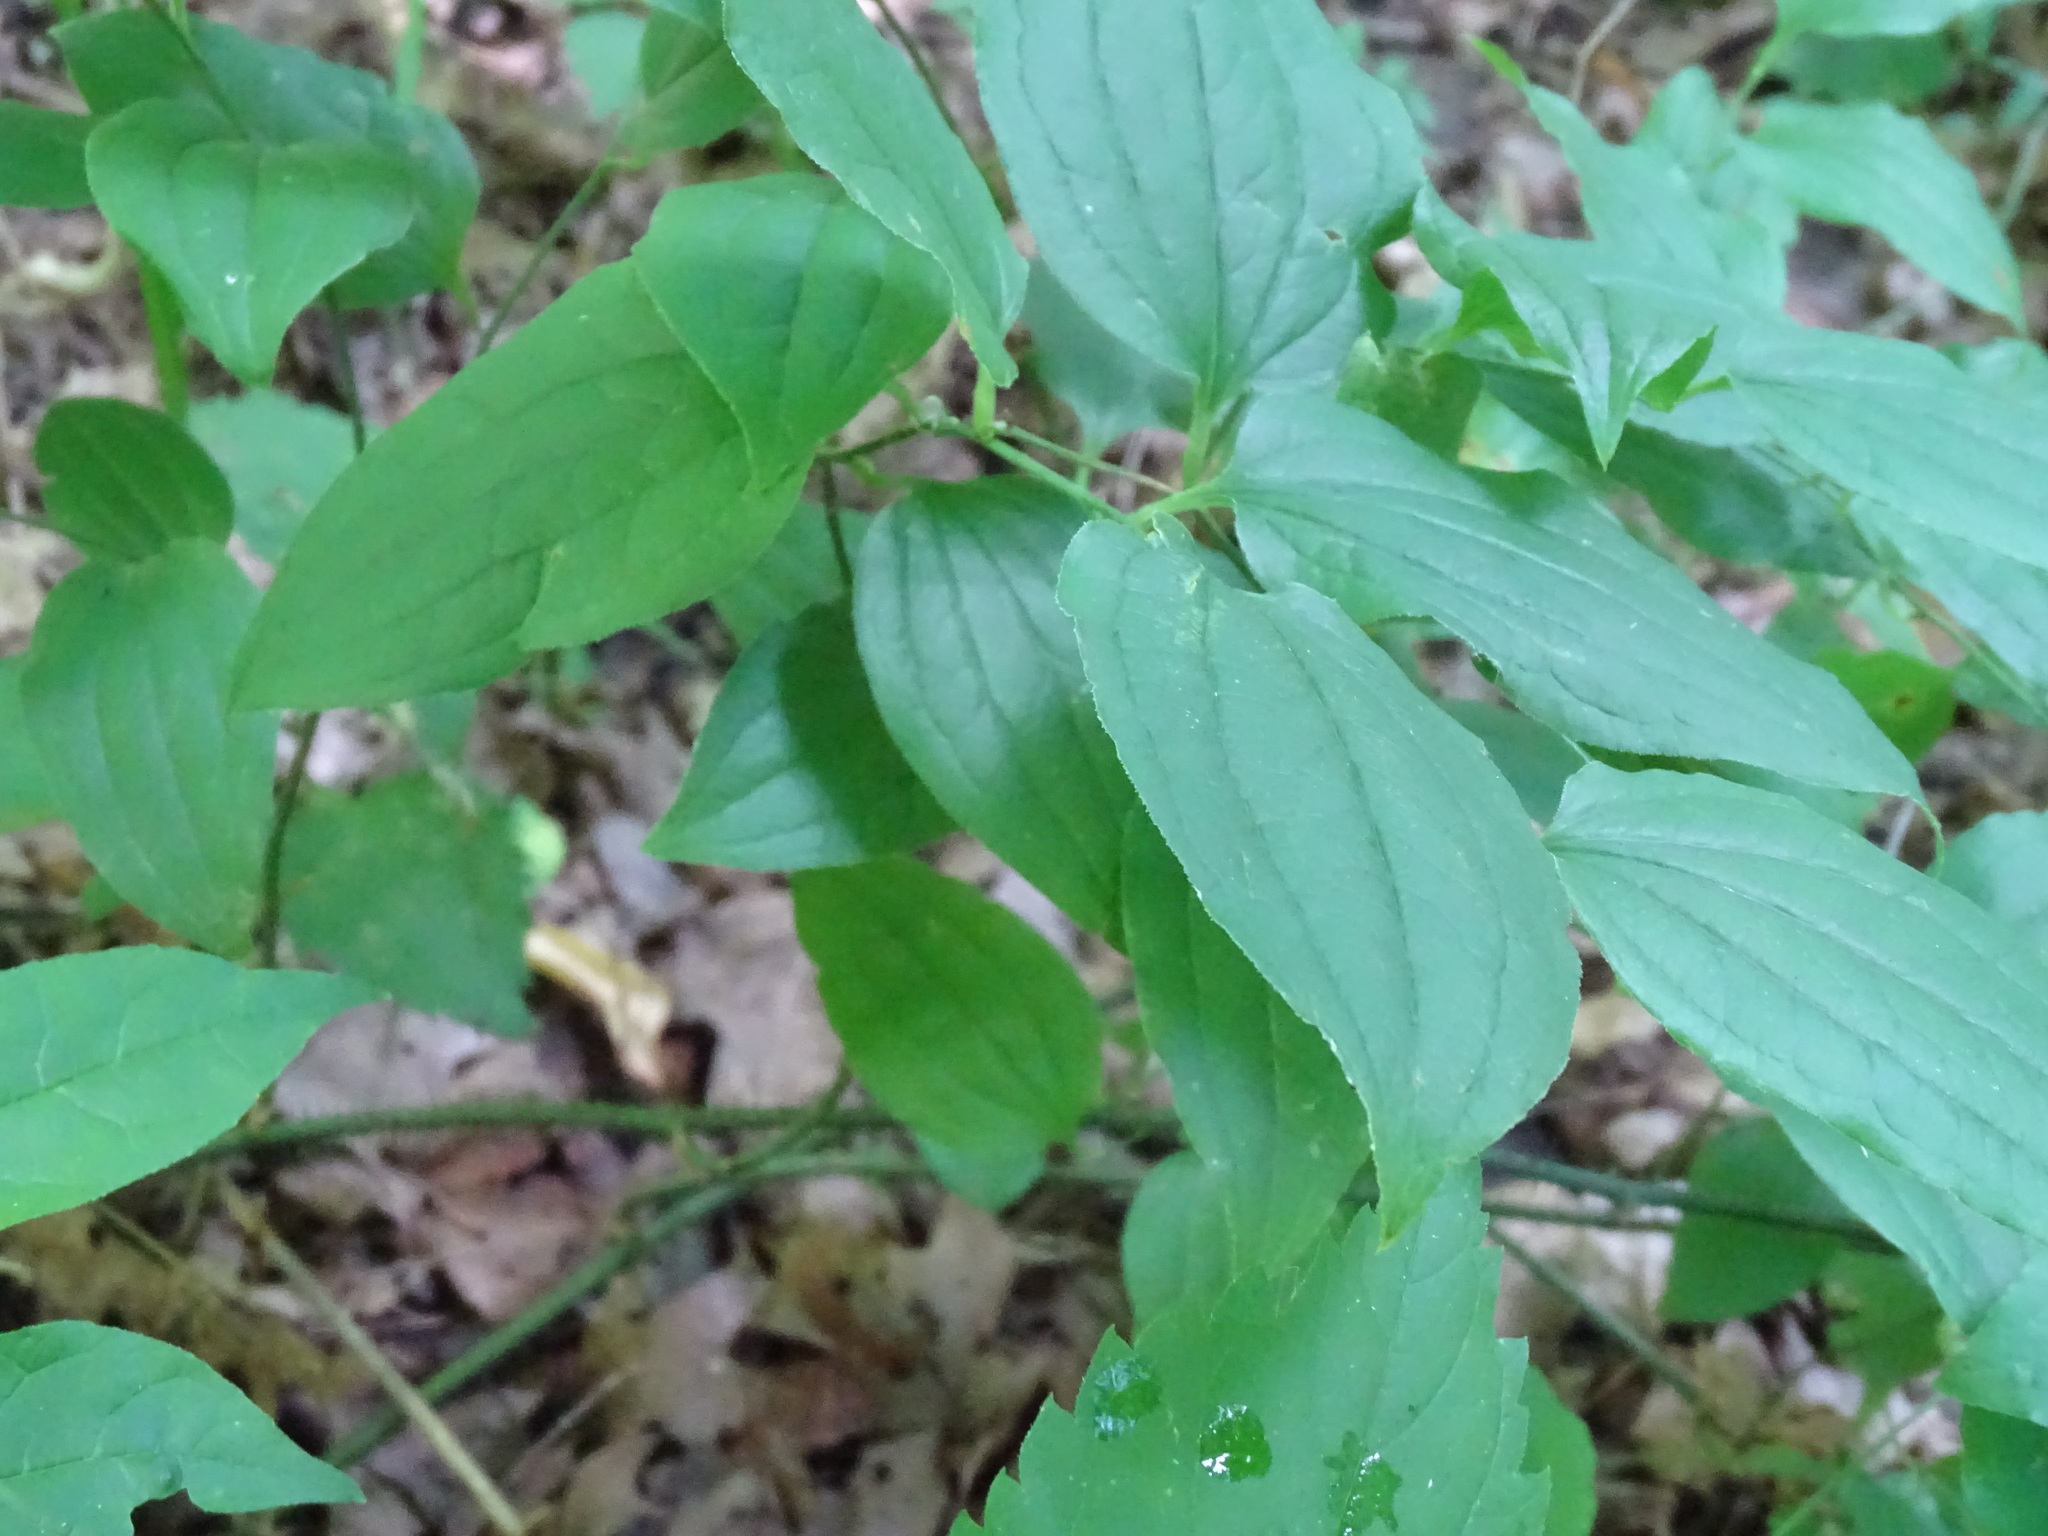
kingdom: Plantae
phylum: Tracheophyta
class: Liliopsida
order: Liliales
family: Smilacaceae
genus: Smilax
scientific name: Smilax tamnoides
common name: Hellfetter
